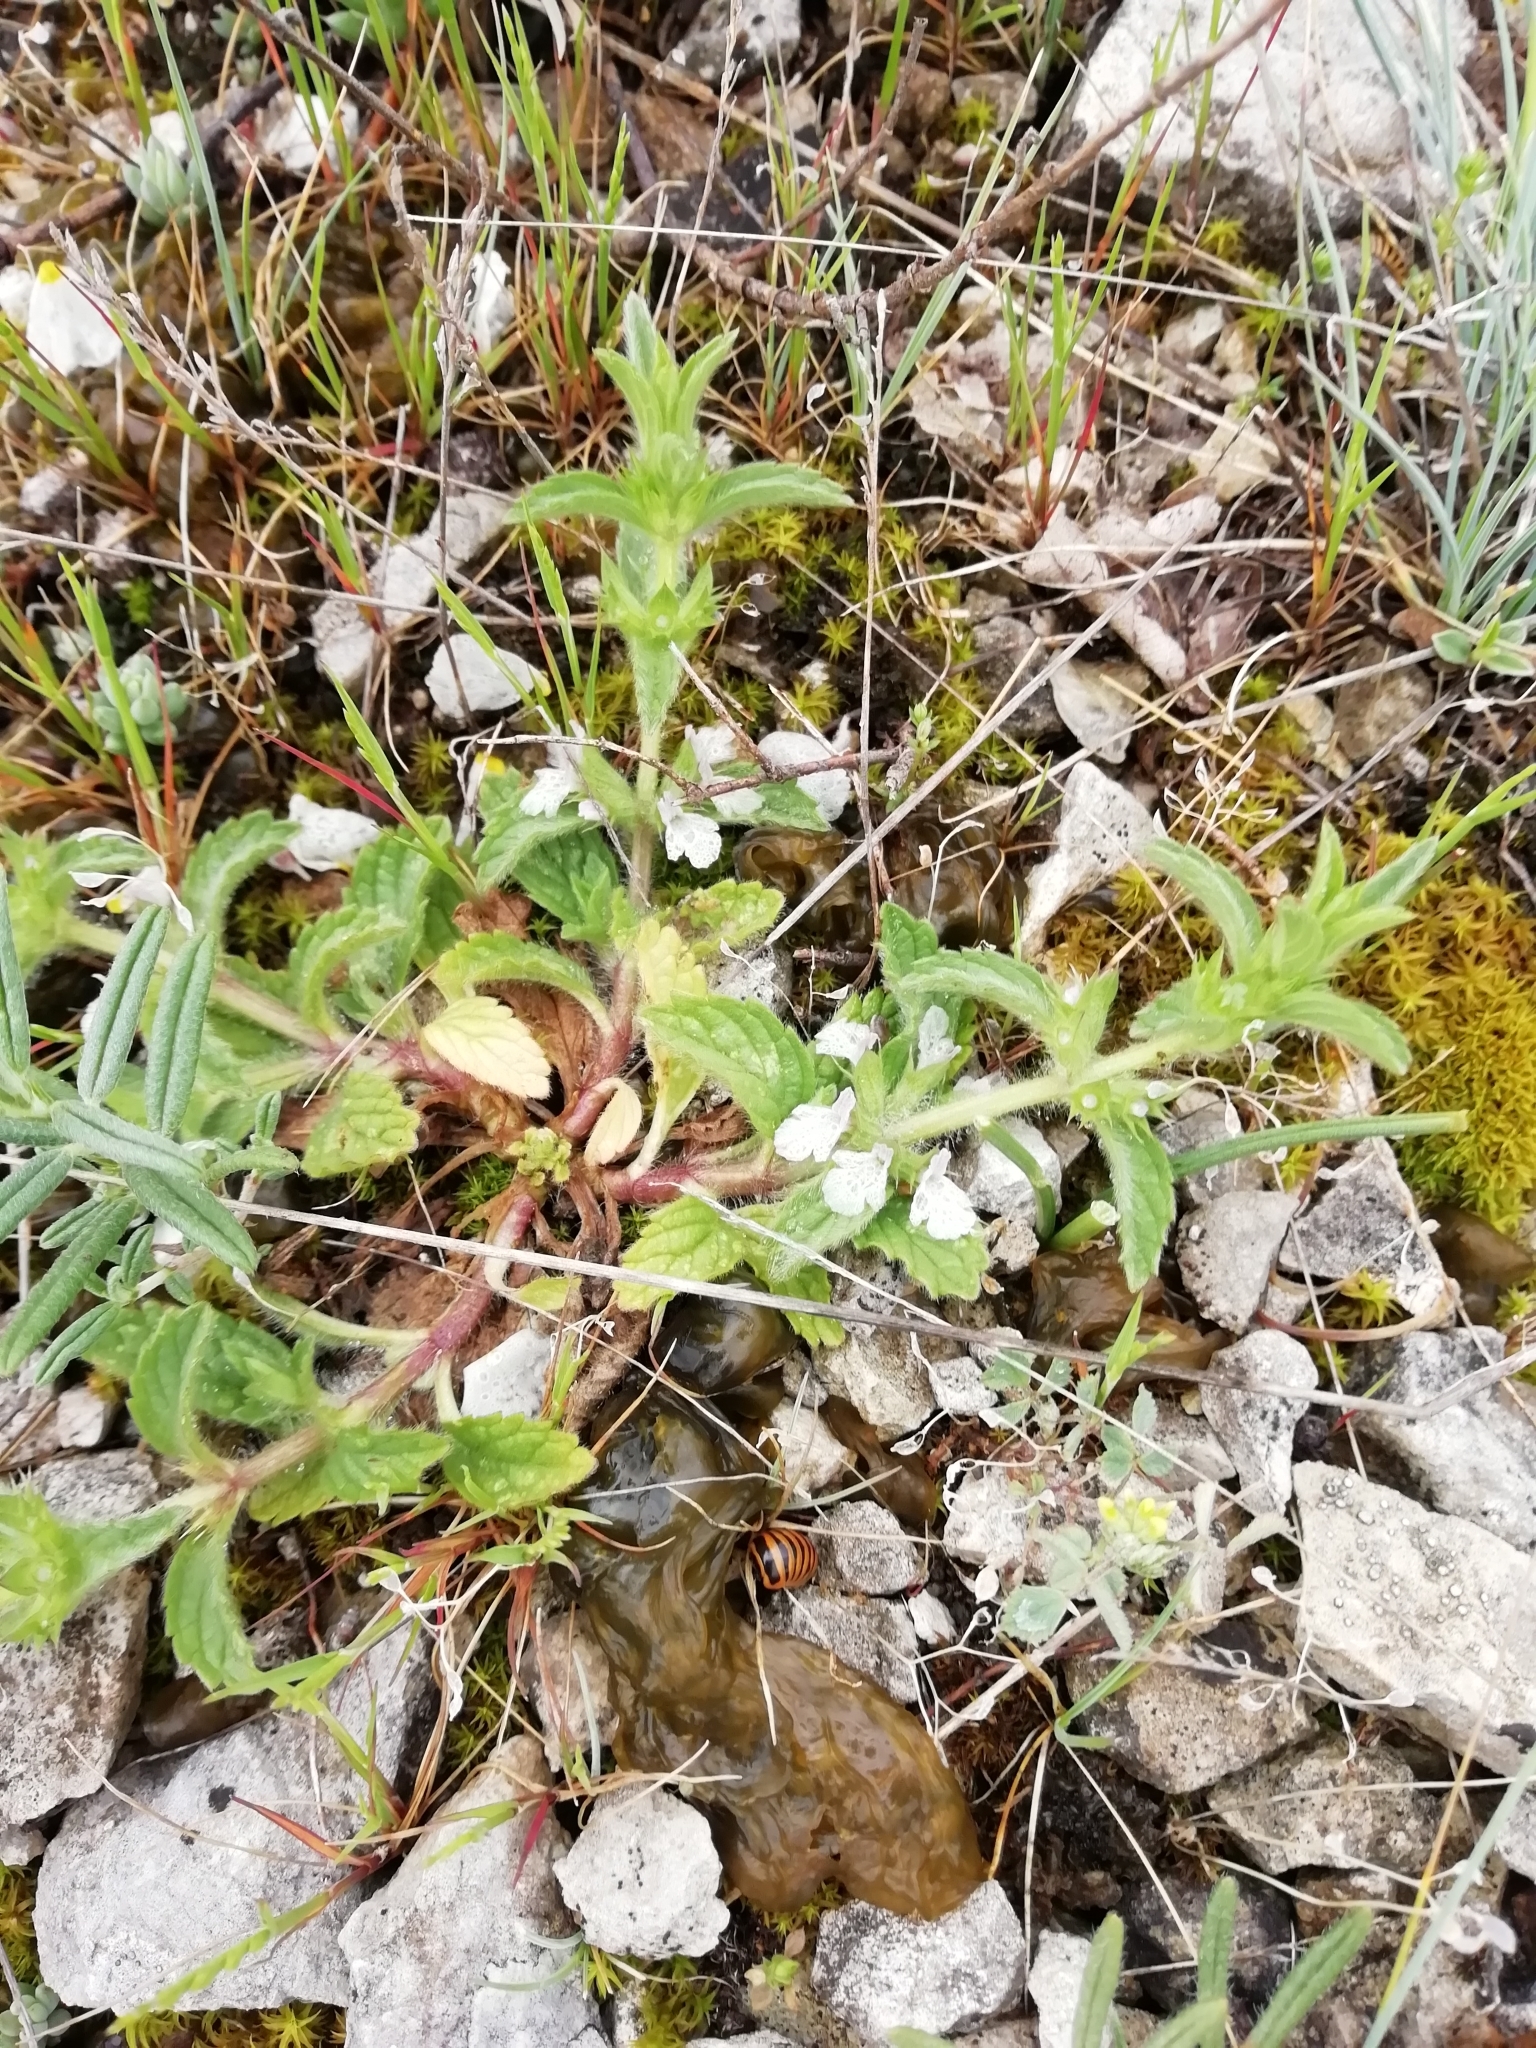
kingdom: Plantae
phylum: Tracheophyta
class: Magnoliopsida
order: Lamiales
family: Lamiaceae
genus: Sideritis
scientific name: Sideritis romana
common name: Simplebeak ironwort
